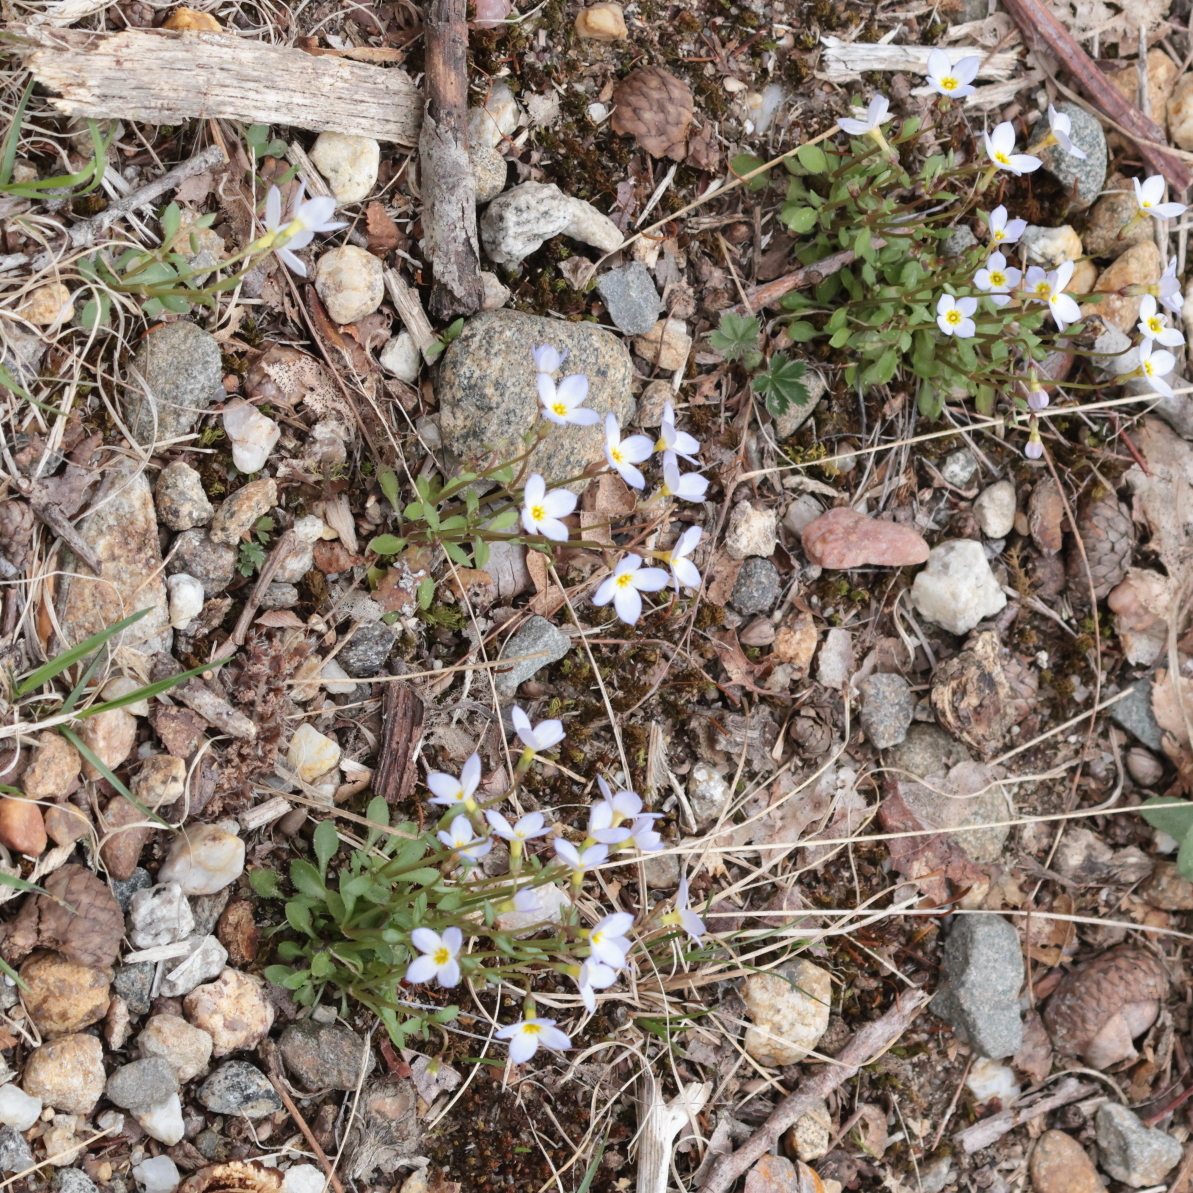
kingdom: Plantae
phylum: Tracheophyta
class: Magnoliopsida
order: Gentianales
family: Rubiaceae
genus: Houstonia
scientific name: Houstonia caerulea
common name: Bluets
